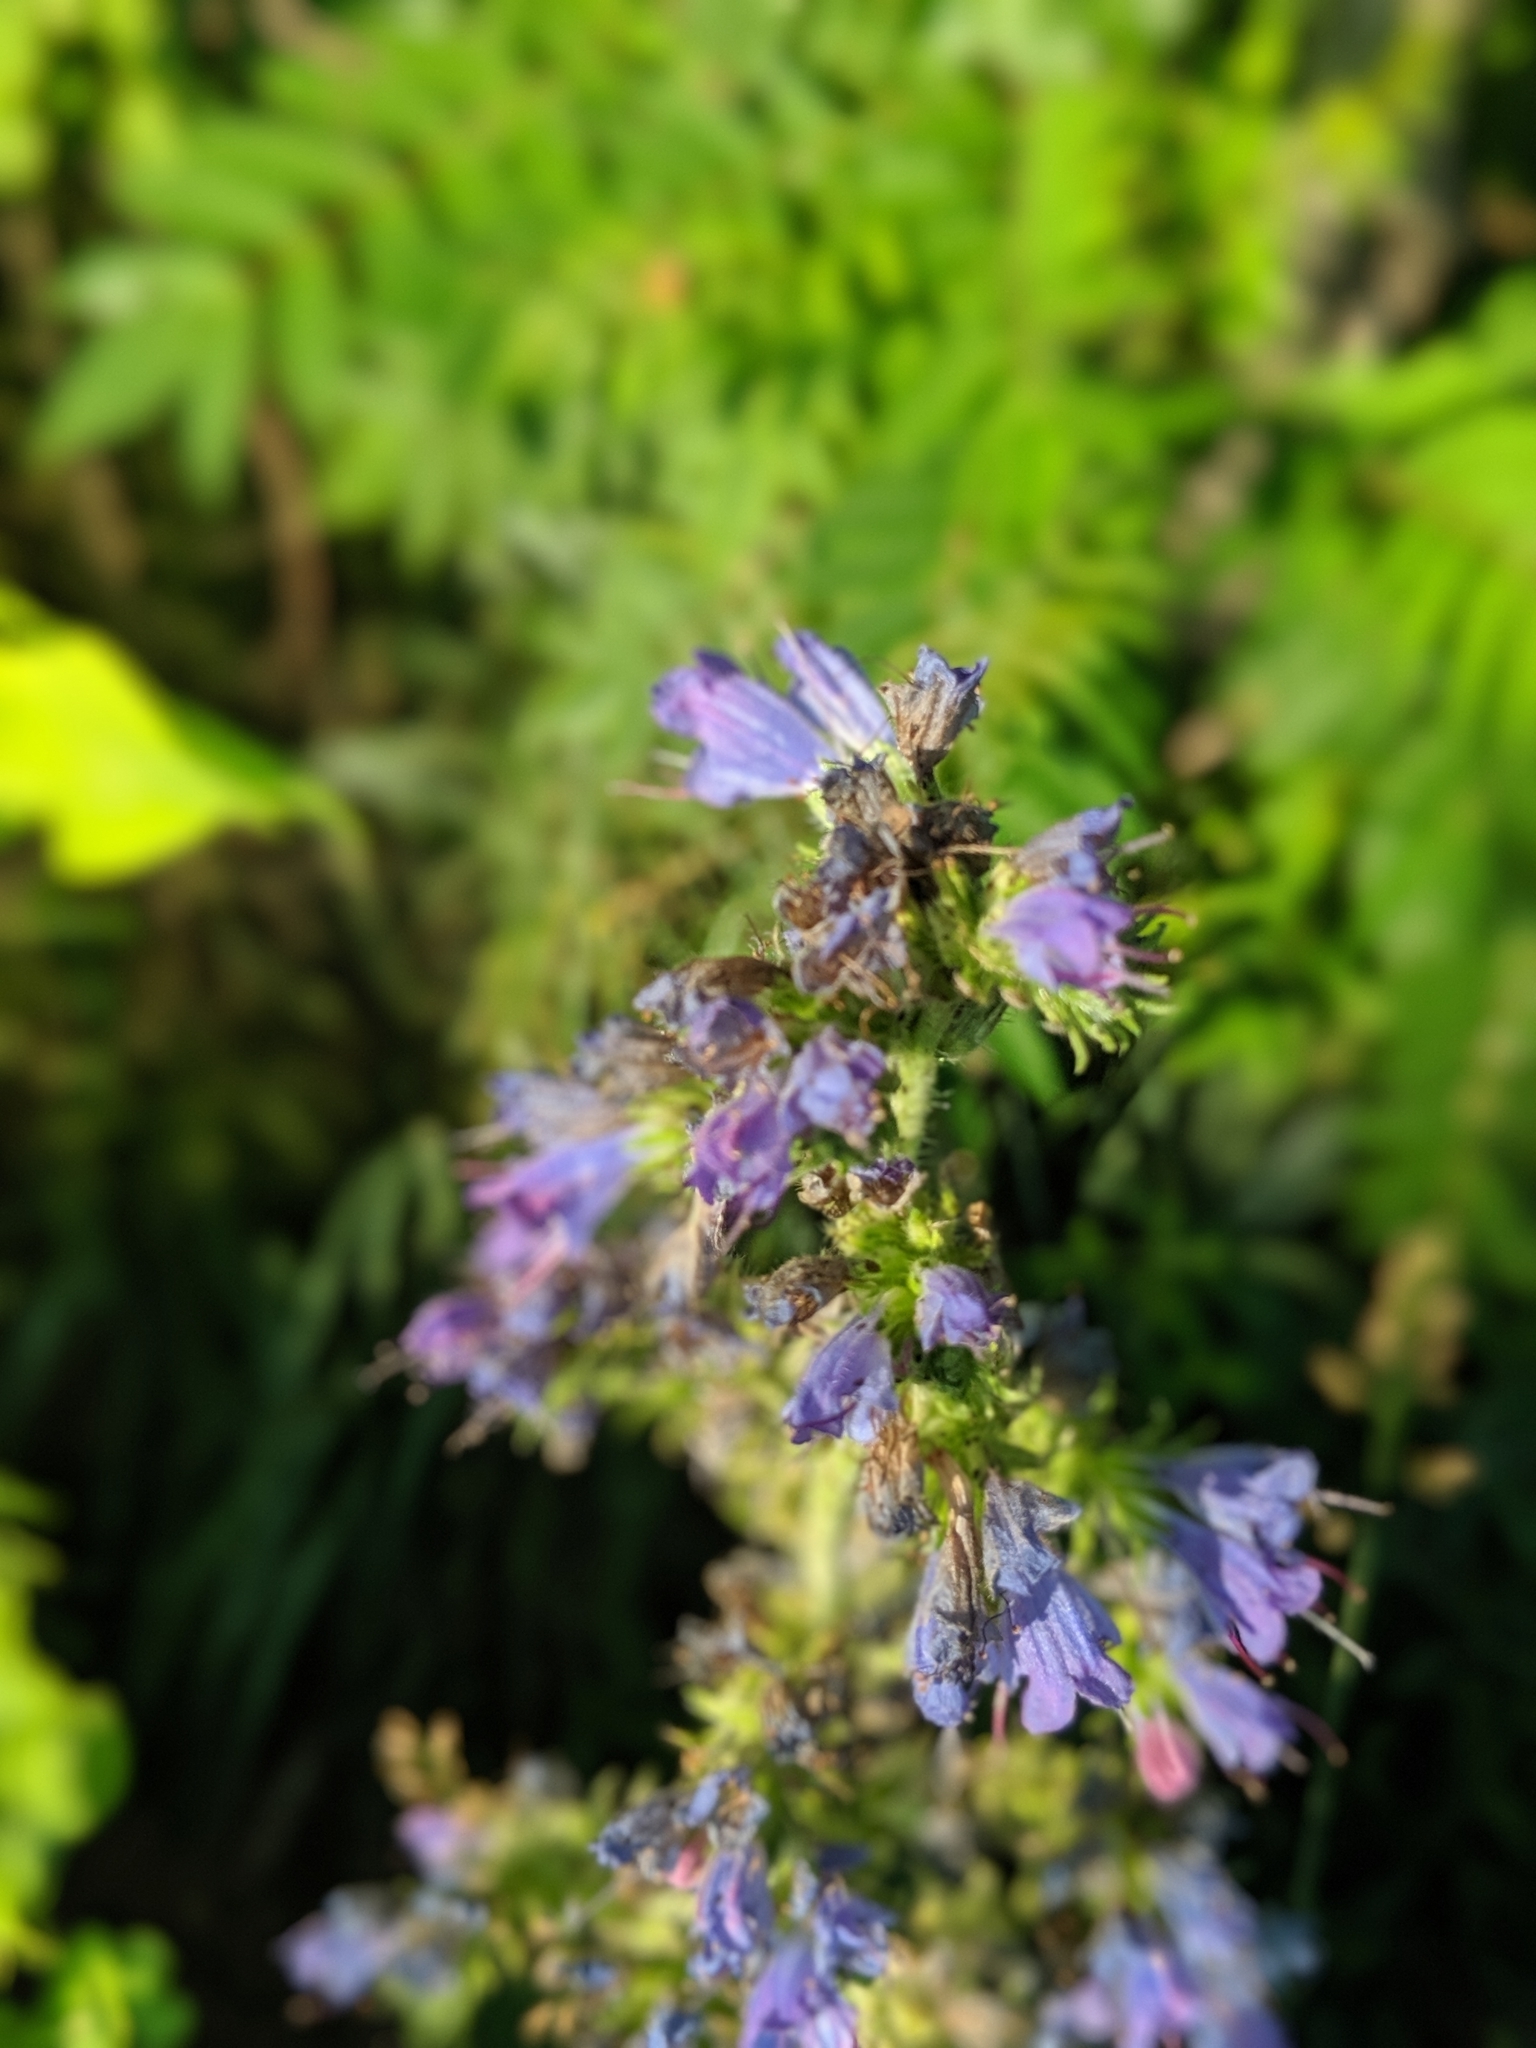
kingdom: Plantae
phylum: Tracheophyta
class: Magnoliopsida
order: Boraginales
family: Boraginaceae
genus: Echium
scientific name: Echium vulgare
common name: Common viper's bugloss
